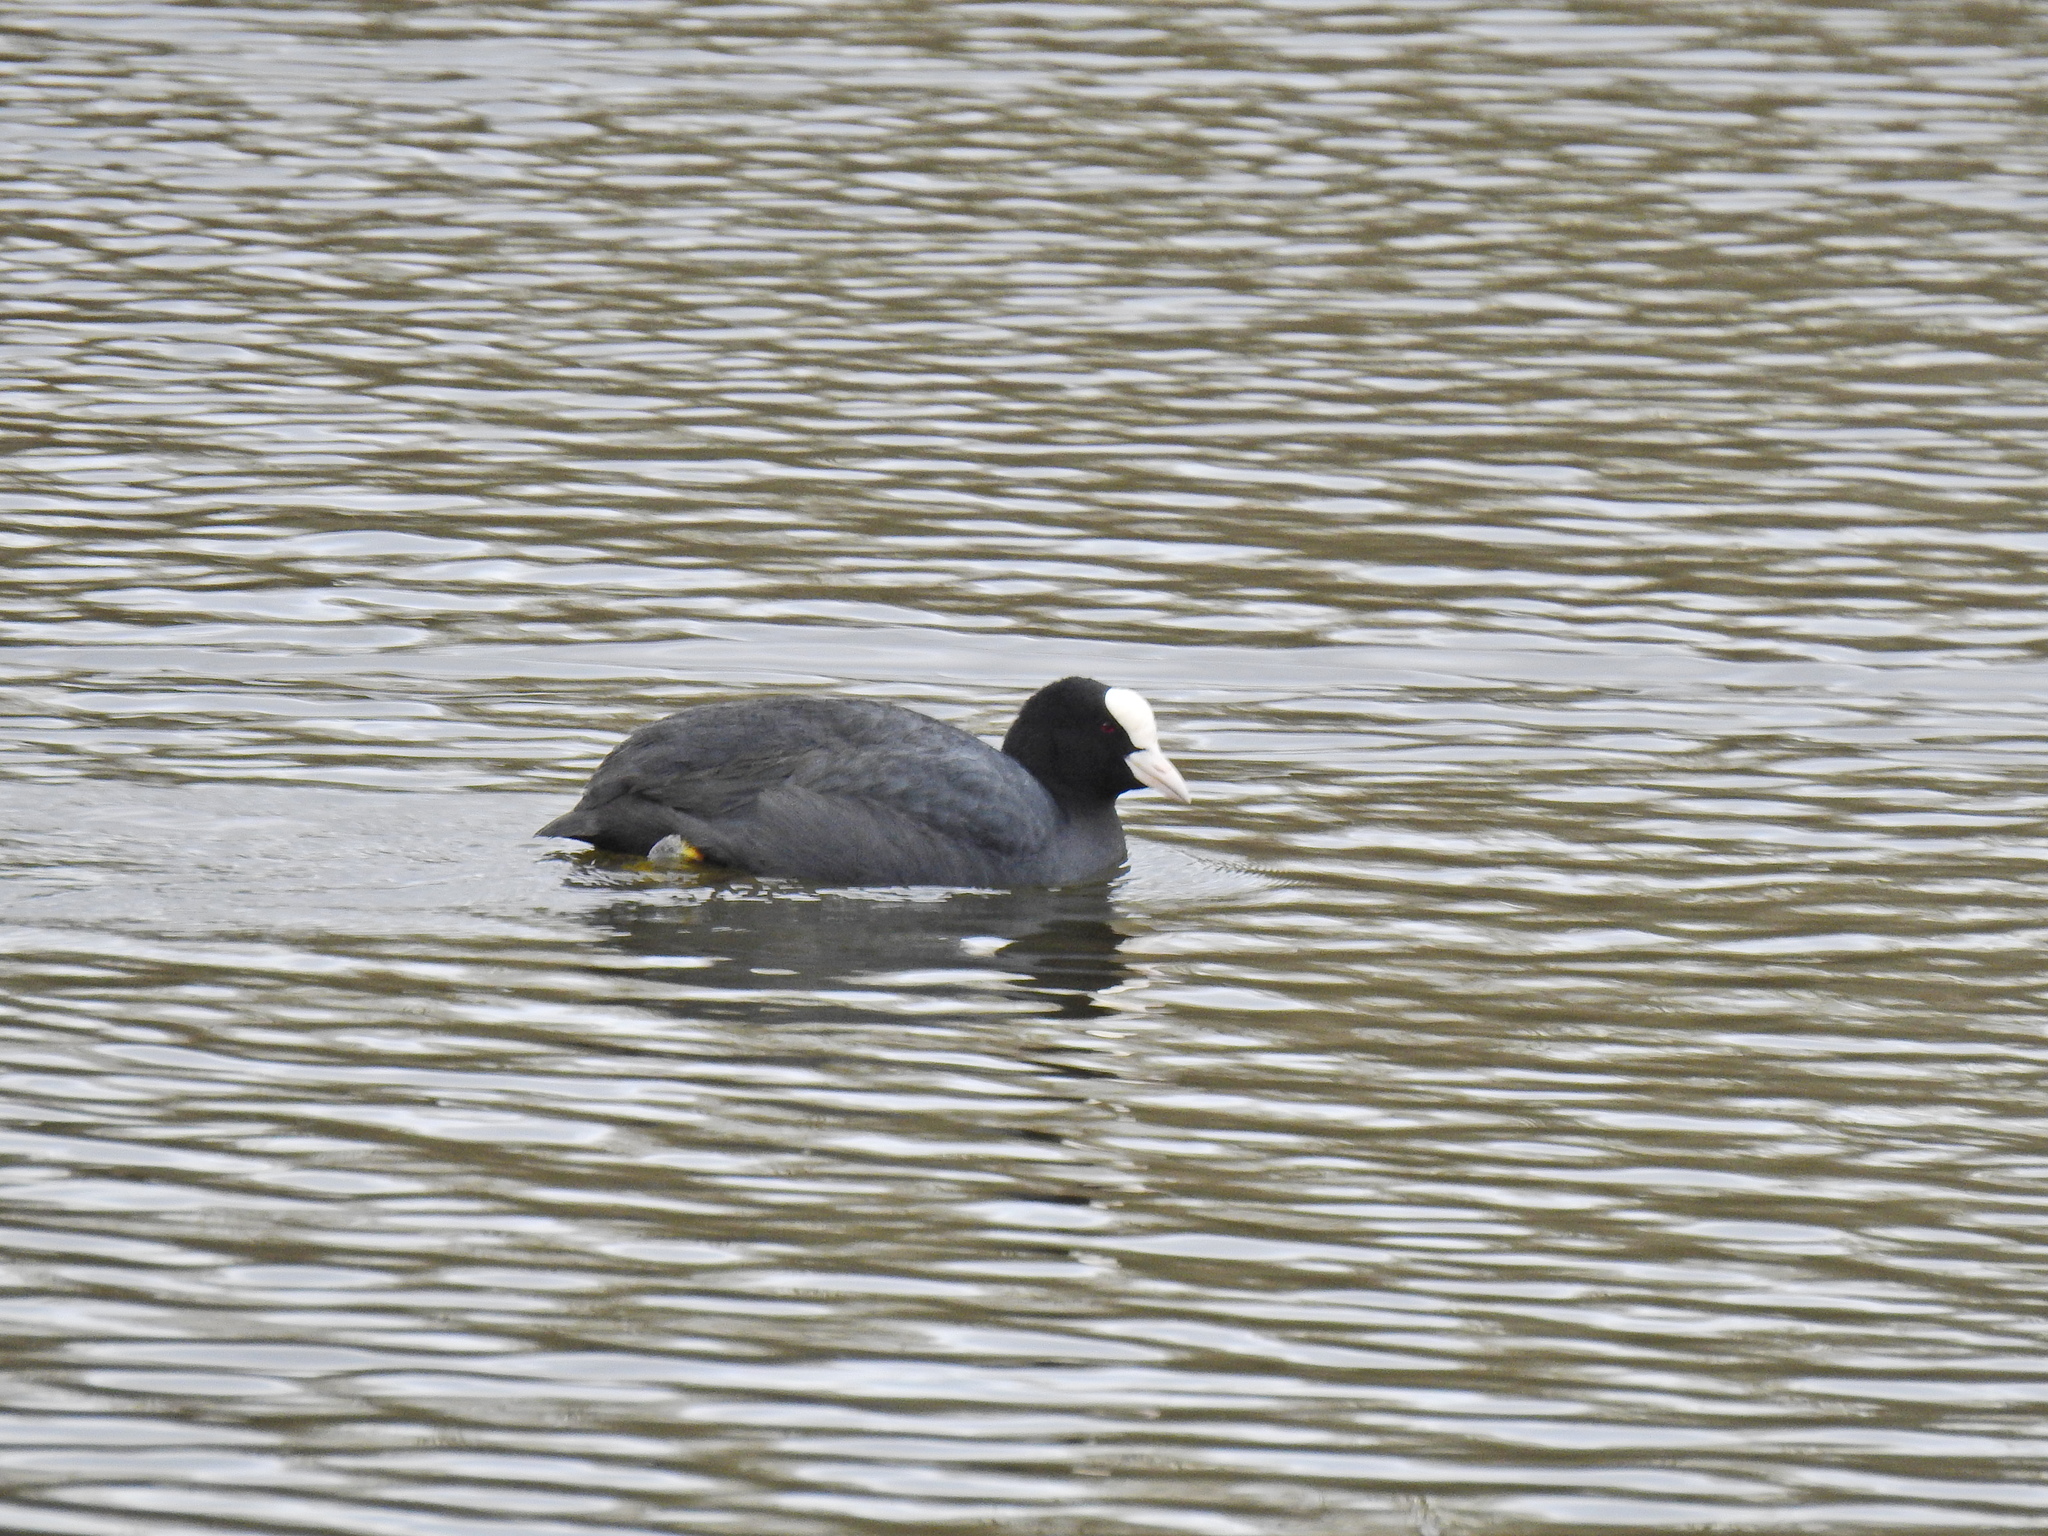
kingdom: Animalia
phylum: Chordata
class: Aves
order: Gruiformes
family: Rallidae
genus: Fulica
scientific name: Fulica atra
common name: Eurasian coot
